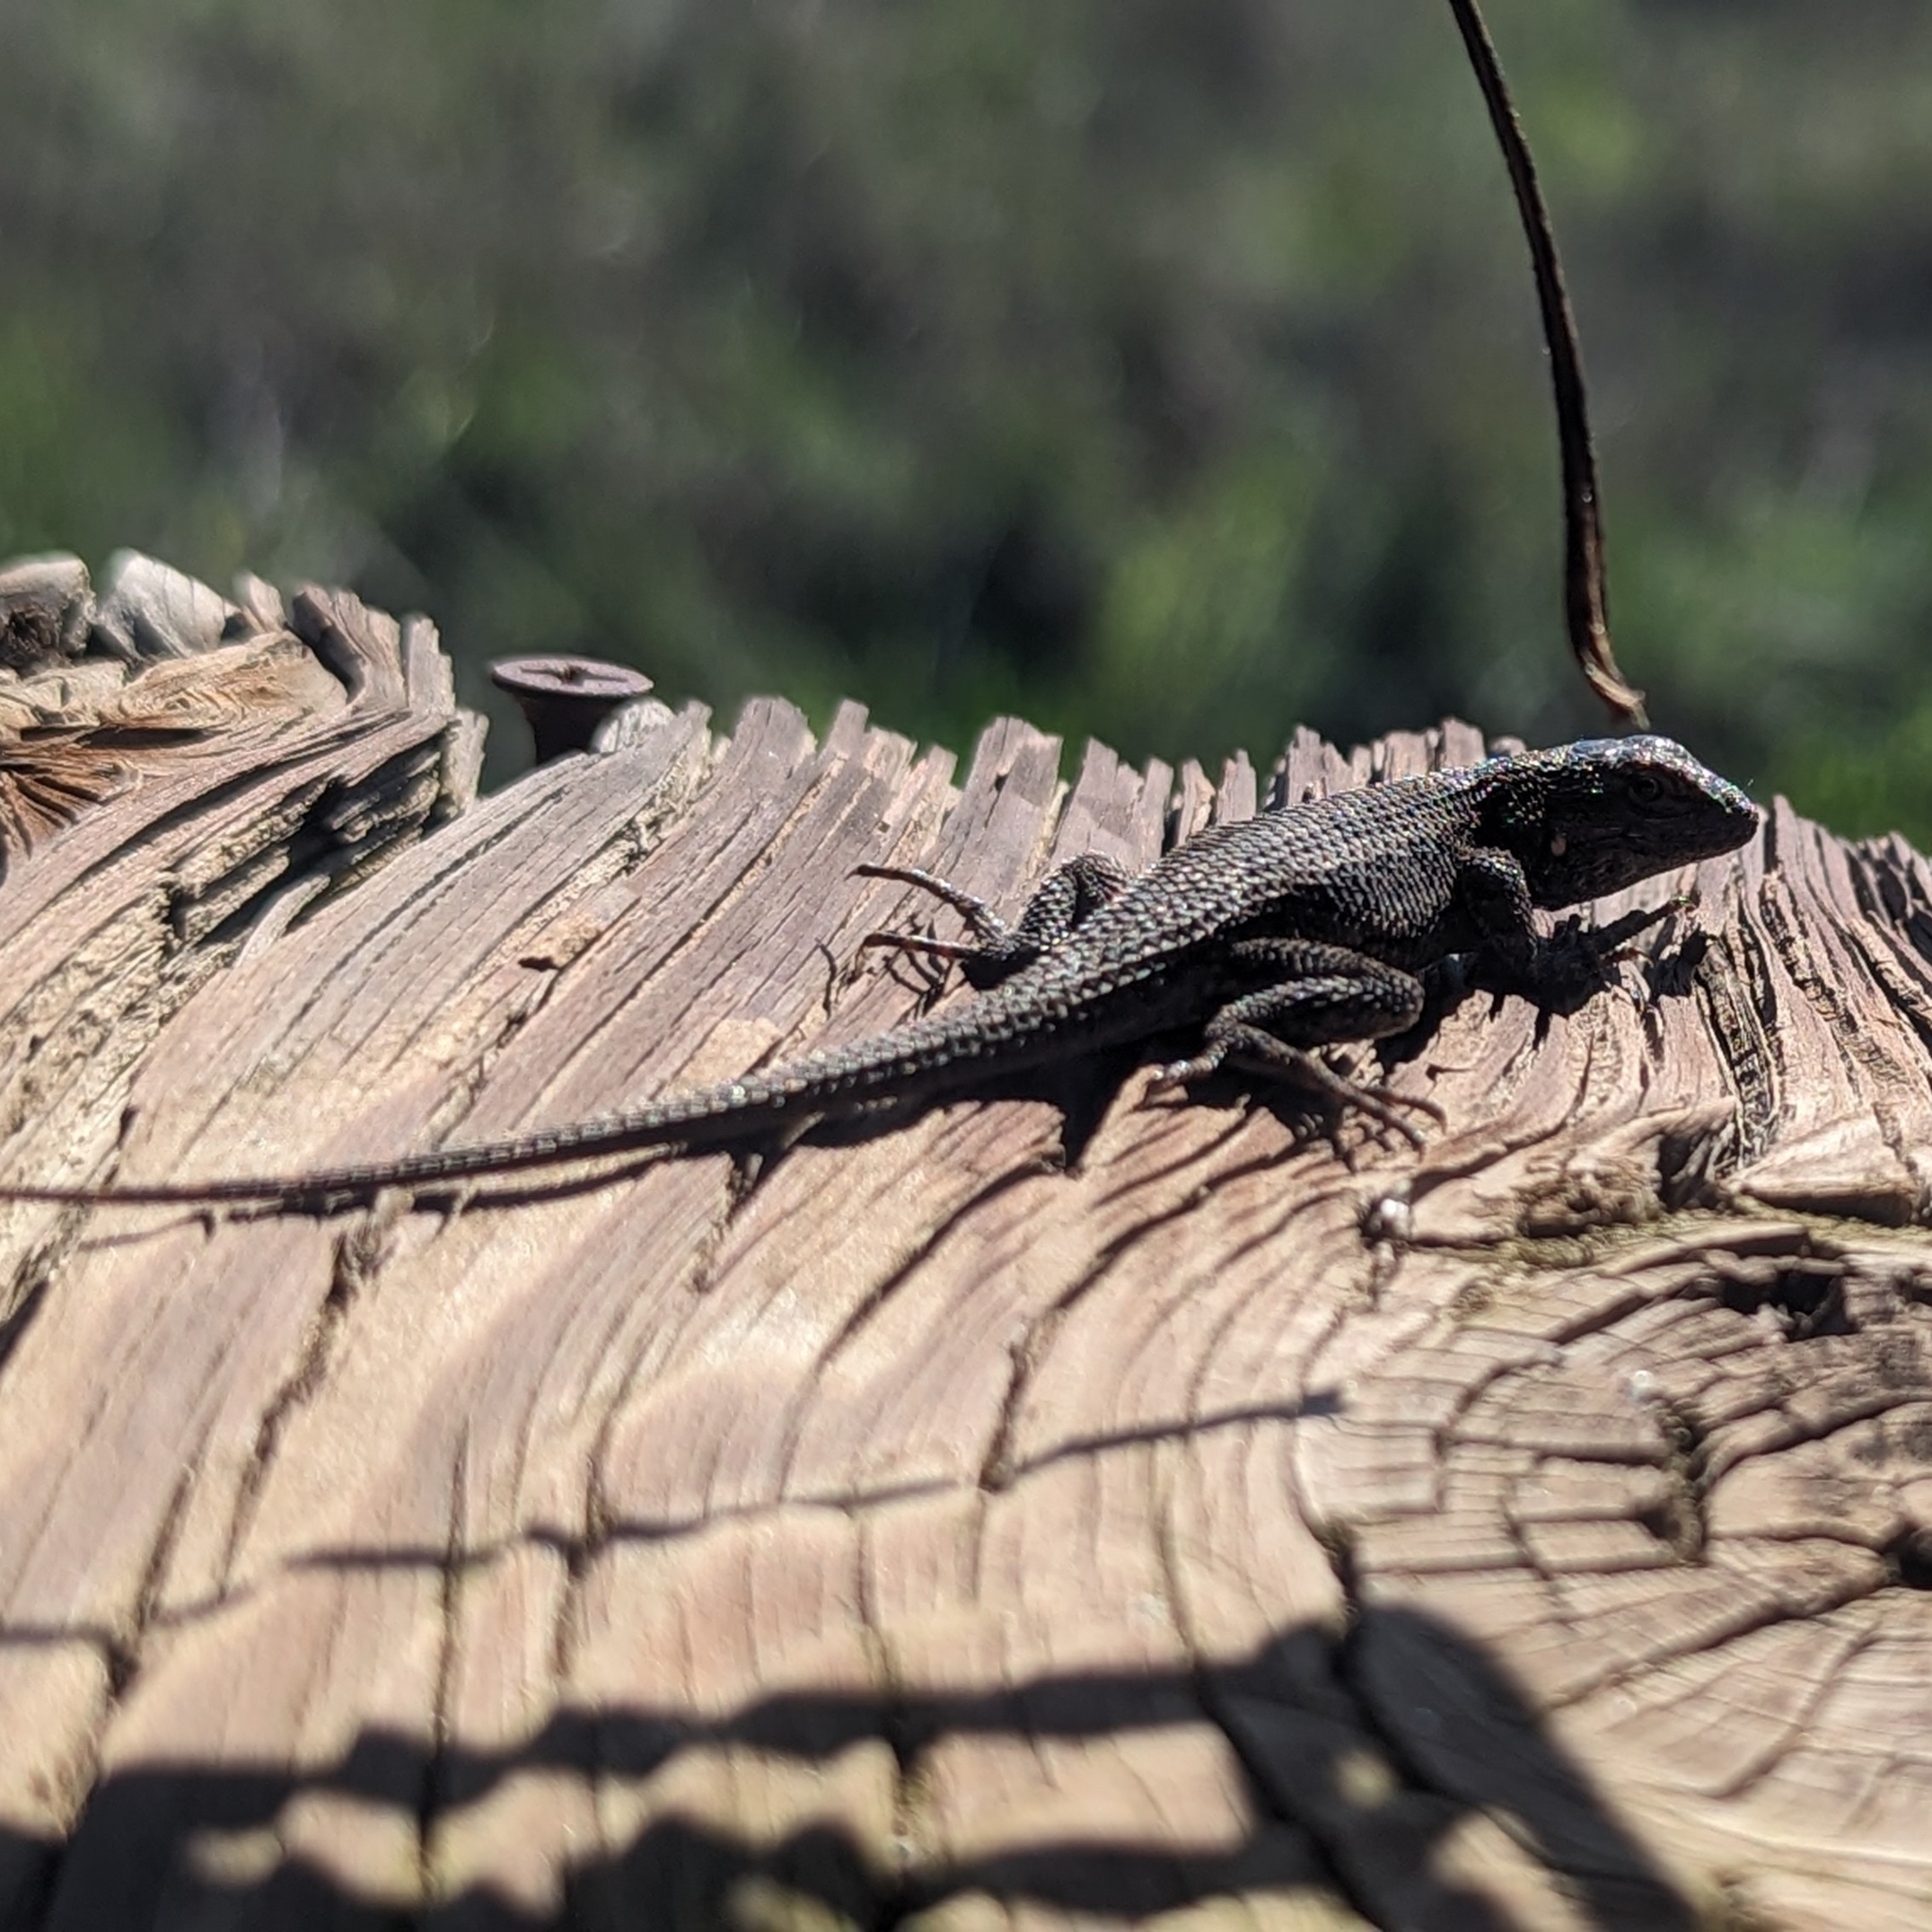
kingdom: Animalia
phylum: Chordata
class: Squamata
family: Phrynosomatidae
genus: Sceloporus
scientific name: Sceloporus occidentalis
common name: Western fence lizard
